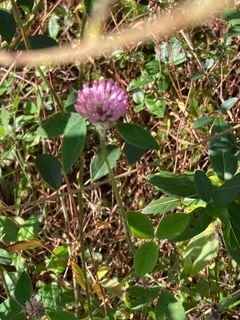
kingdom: Plantae
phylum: Tracheophyta
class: Magnoliopsida
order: Fabales
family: Fabaceae
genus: Trifolium
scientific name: Trifolium pratense
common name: Red clover
